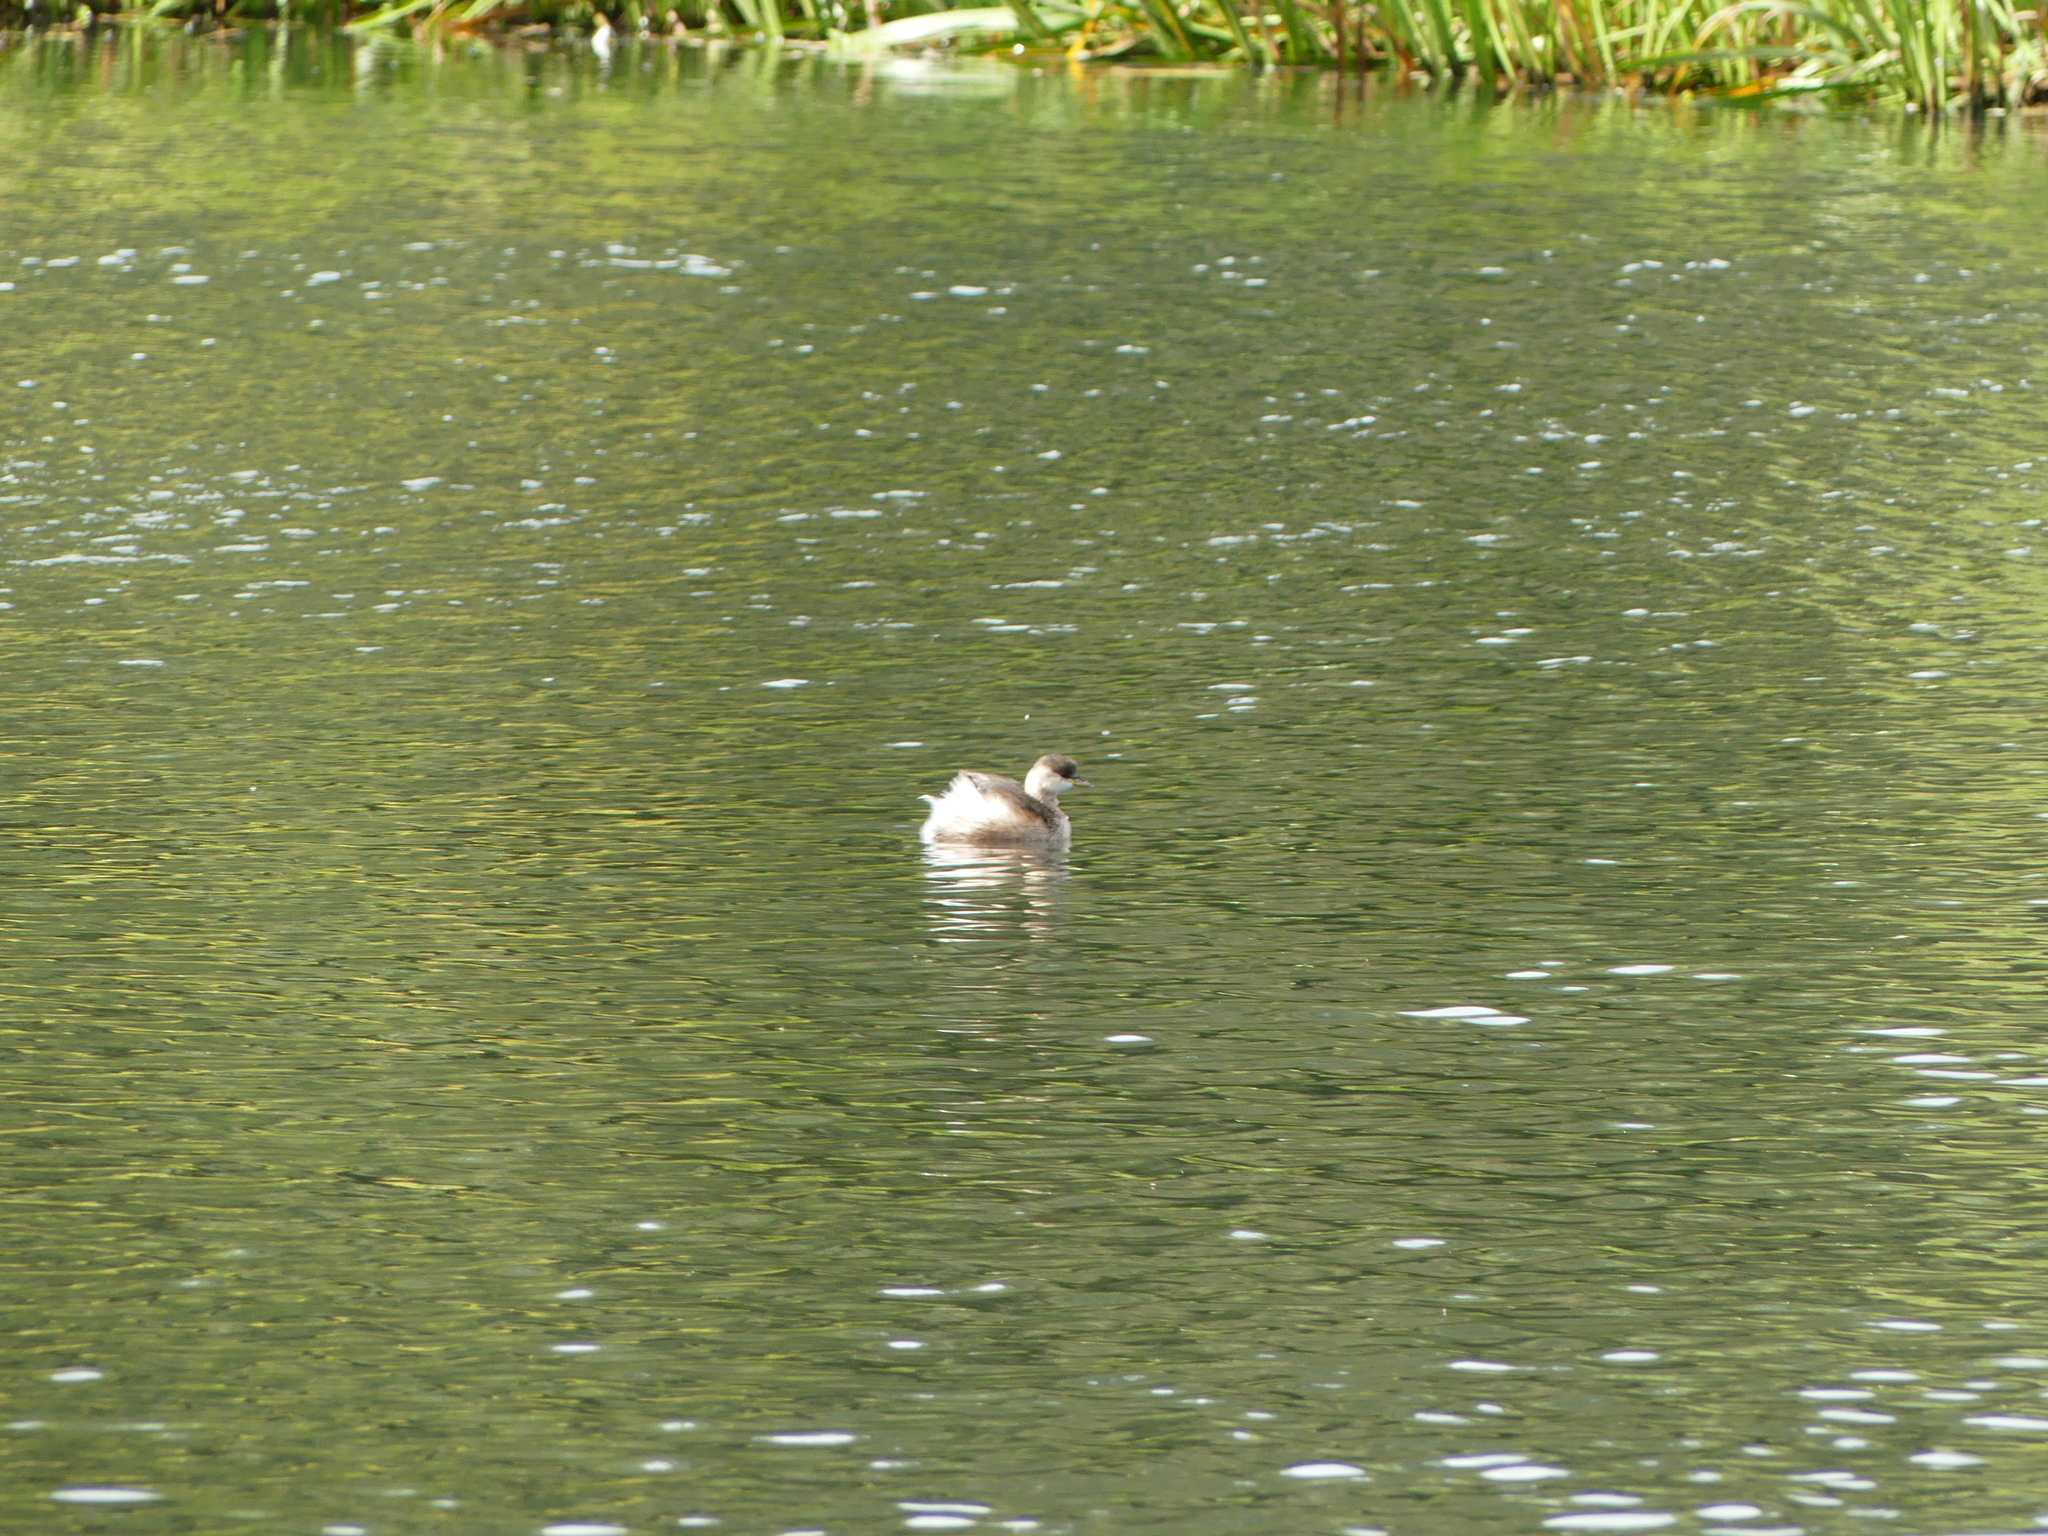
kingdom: Animalia
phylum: Chordata
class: Aves
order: Podicipediformes
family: Podicipedidae
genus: Tachybaptus
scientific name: Tachybaptus ruficollis
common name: Little grebe
